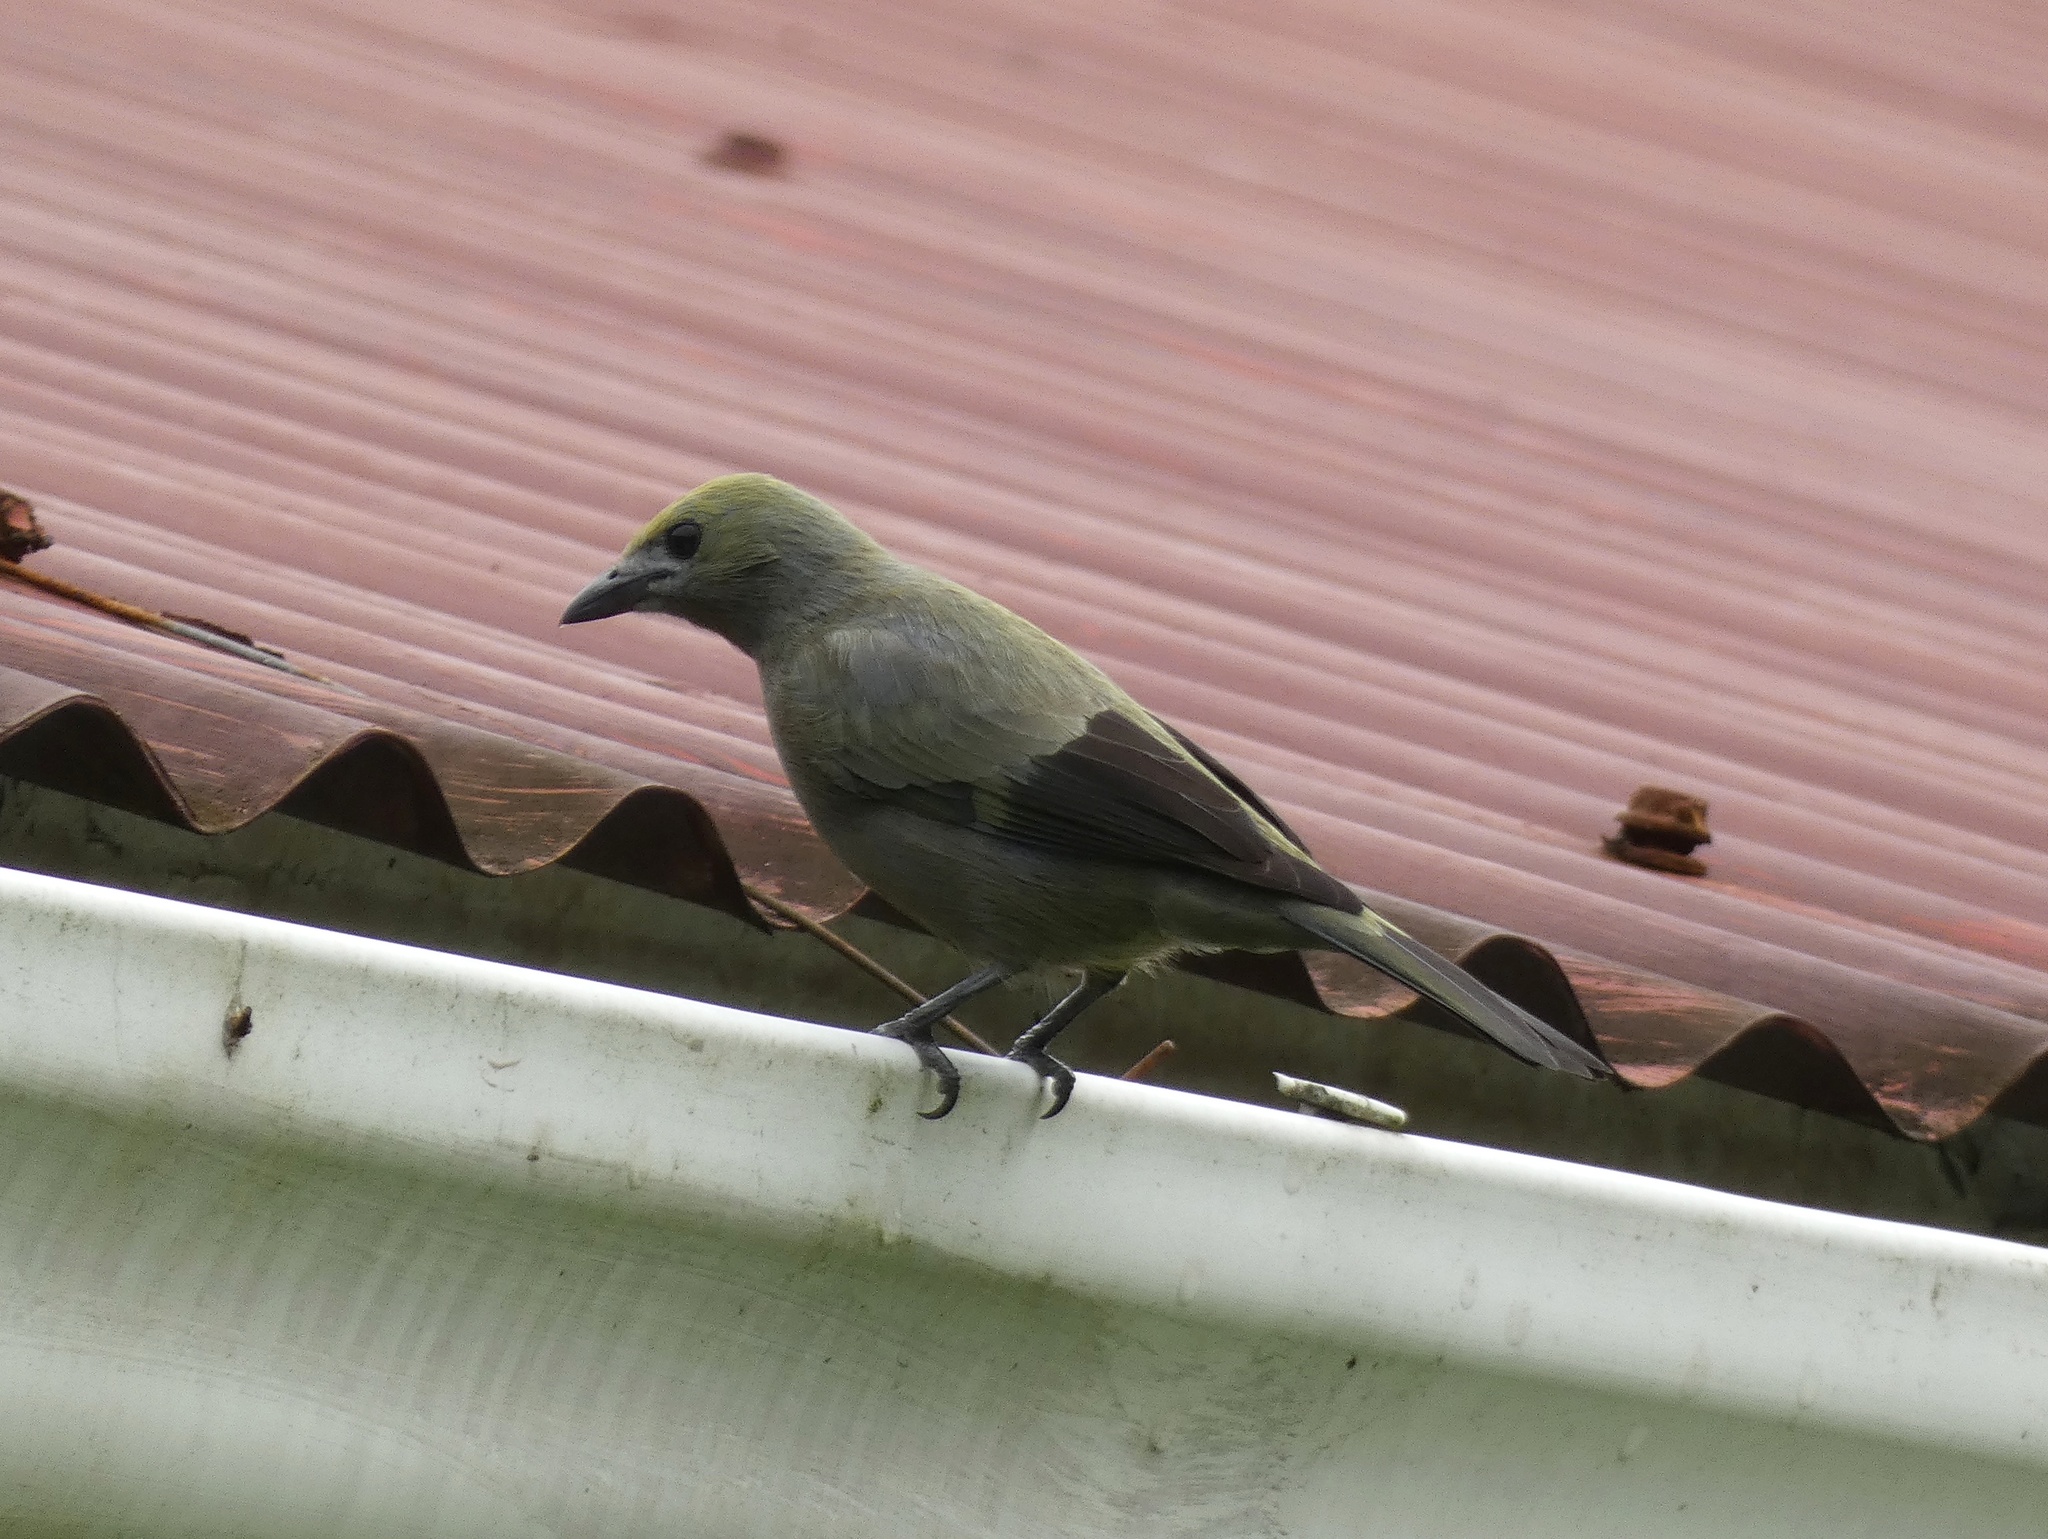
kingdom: Animalia
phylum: Chordata
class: Aves
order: Passeriformes
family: Thraupidae
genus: Thraupis
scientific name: Thraupis palmarum
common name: Palm tanager
